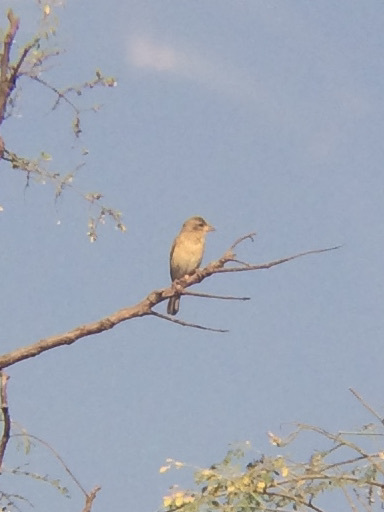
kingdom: Animalia
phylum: Chordata
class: Aves
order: Passeriformes
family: Ploceidae
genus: Ploceus
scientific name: Ploceus philippinus
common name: Baya weaver
